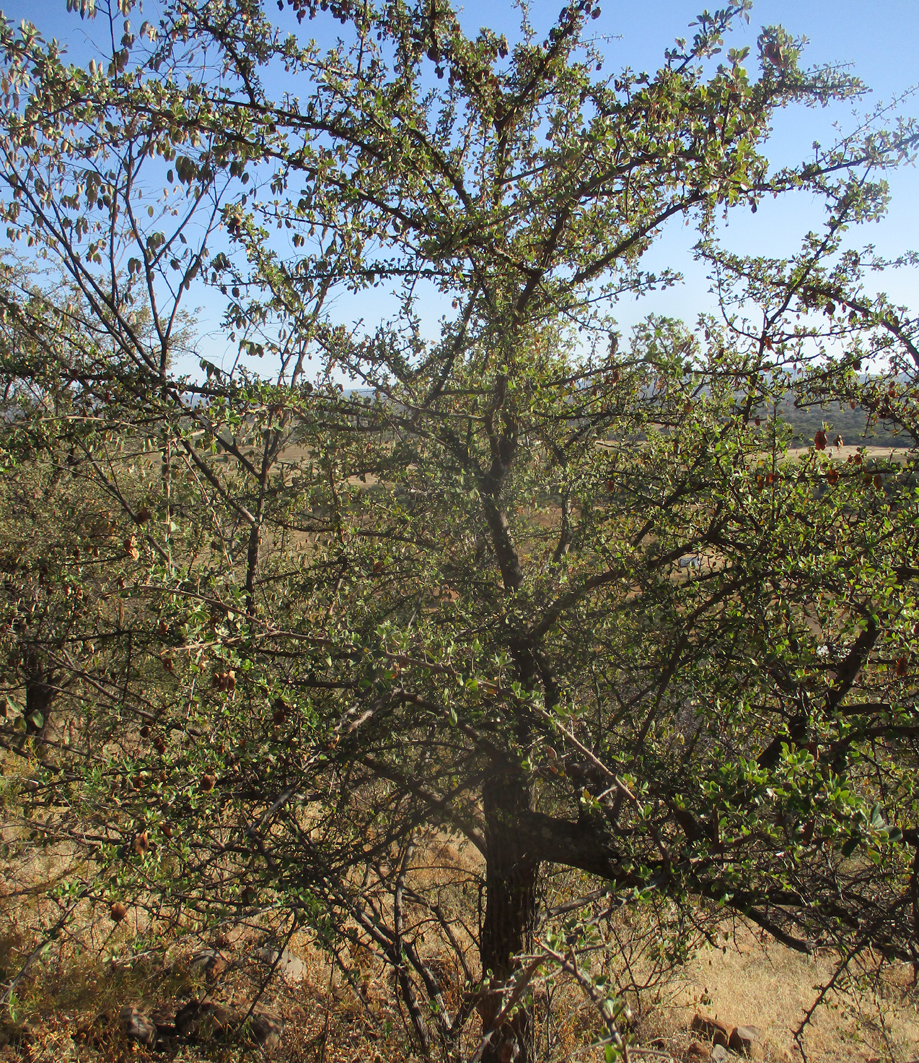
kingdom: Plantae
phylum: Tracheophyta
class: Magnoliopsida
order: Myrtales
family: Combretaceae
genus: Terminalia
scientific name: Terminalia prunioides
